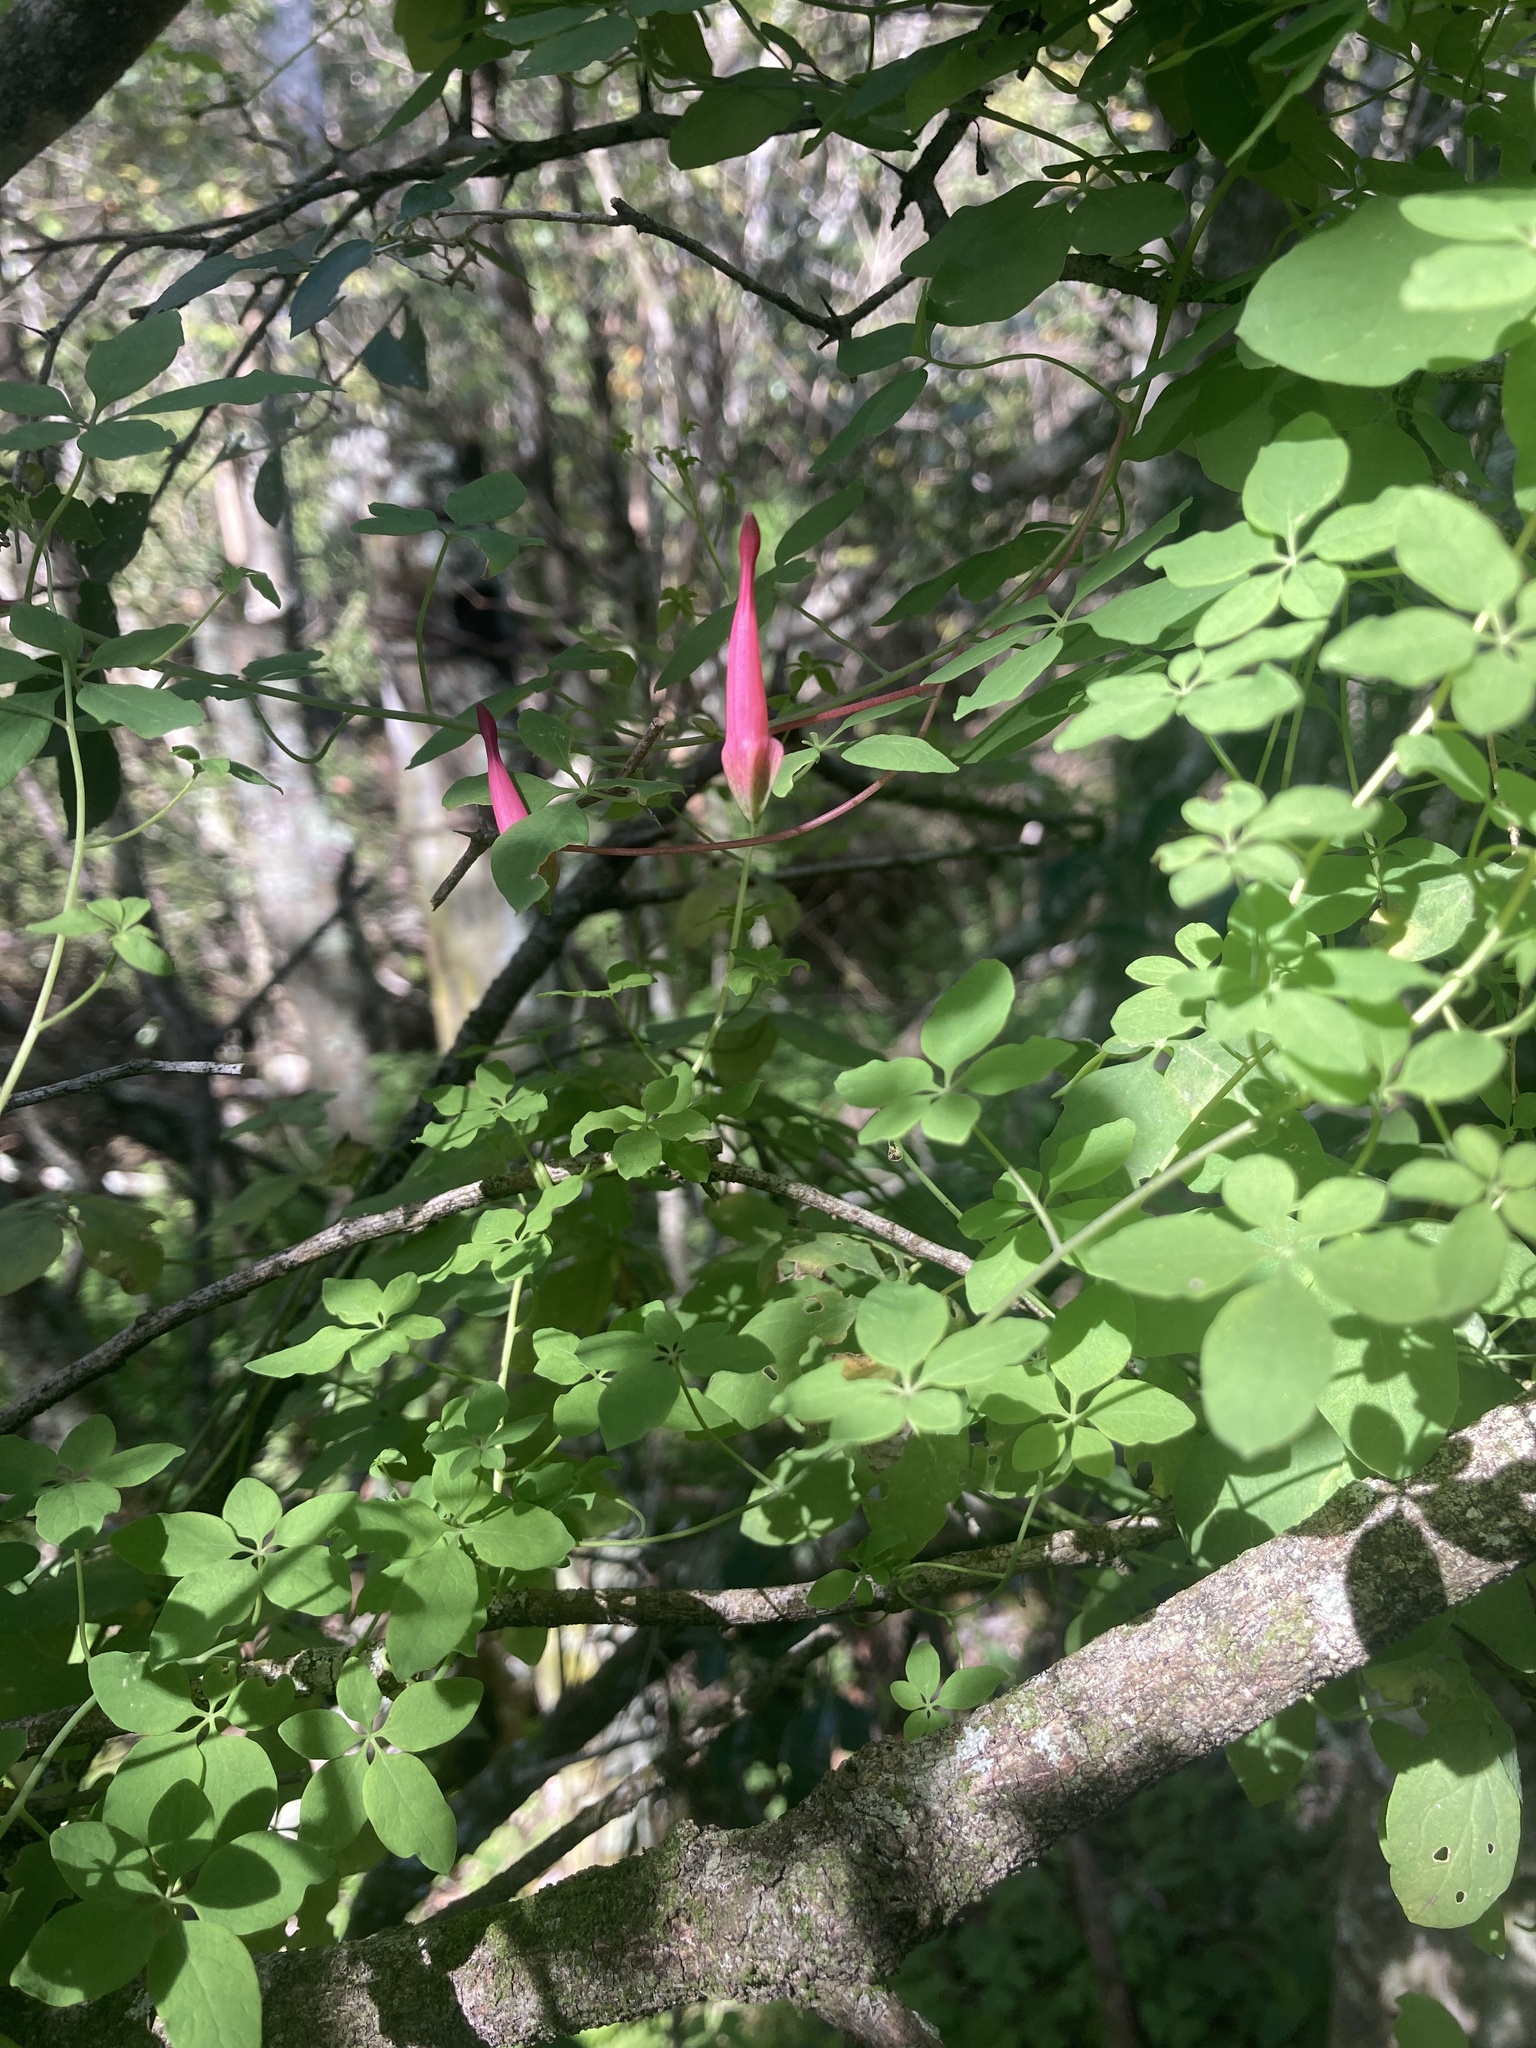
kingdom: Plantae
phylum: Tracheophyta
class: Magnoliopsida
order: Brassicales
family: Tropaeolaceae
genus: Tropaeolum
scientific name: Tropaeolum pentaphyllum
